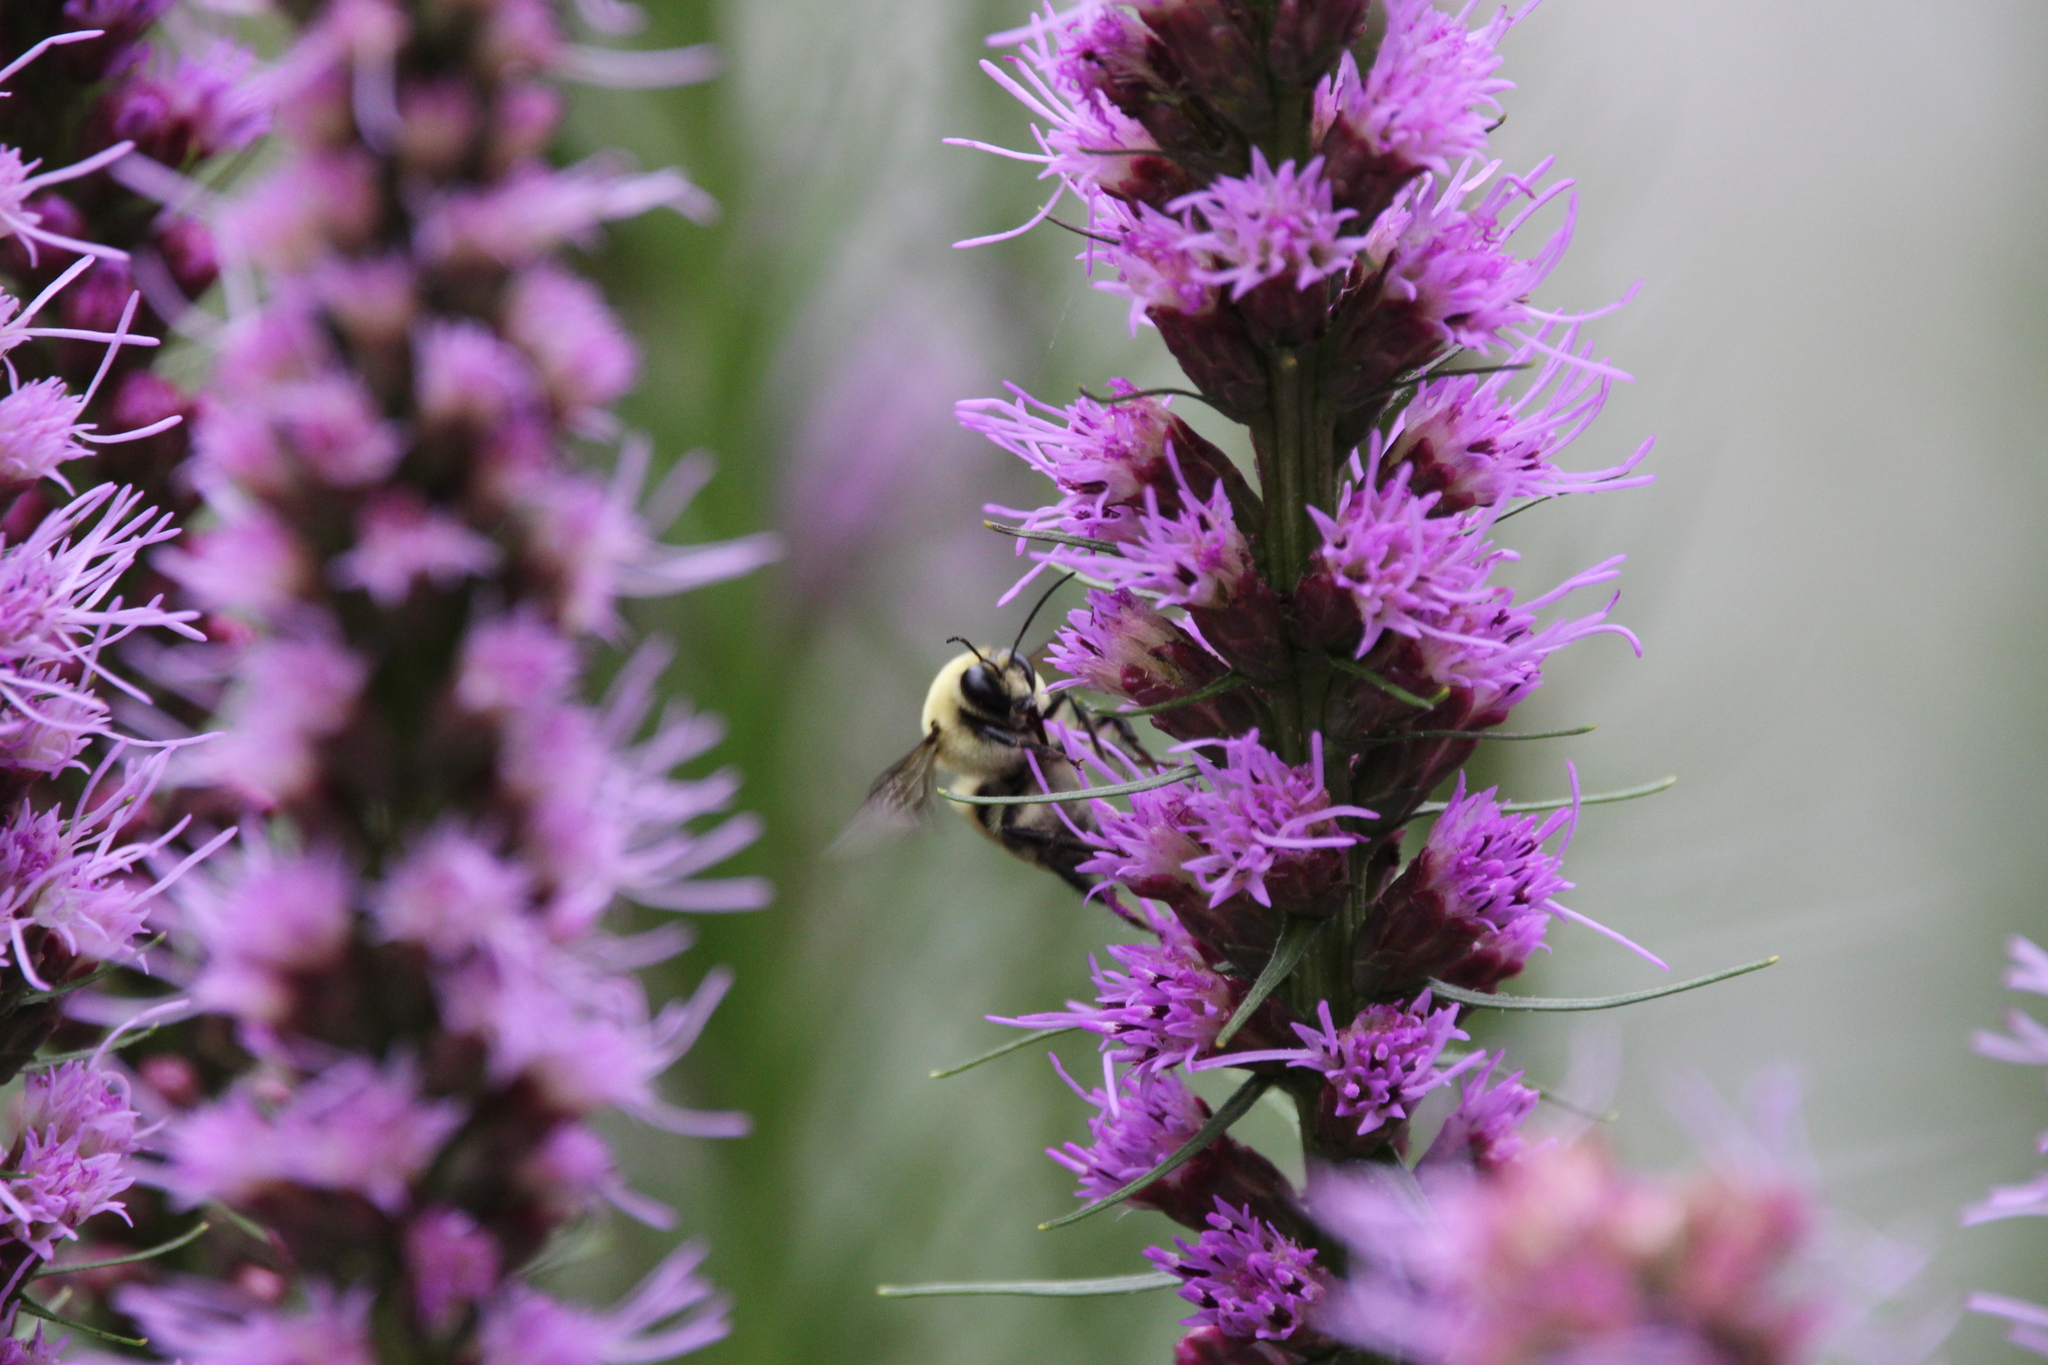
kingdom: Animalia
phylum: Arthropoda
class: Insecta
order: Hymenoptera
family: Apidae
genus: Bombus
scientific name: Bombus griseocollis
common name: Brown-belted bumble bee
